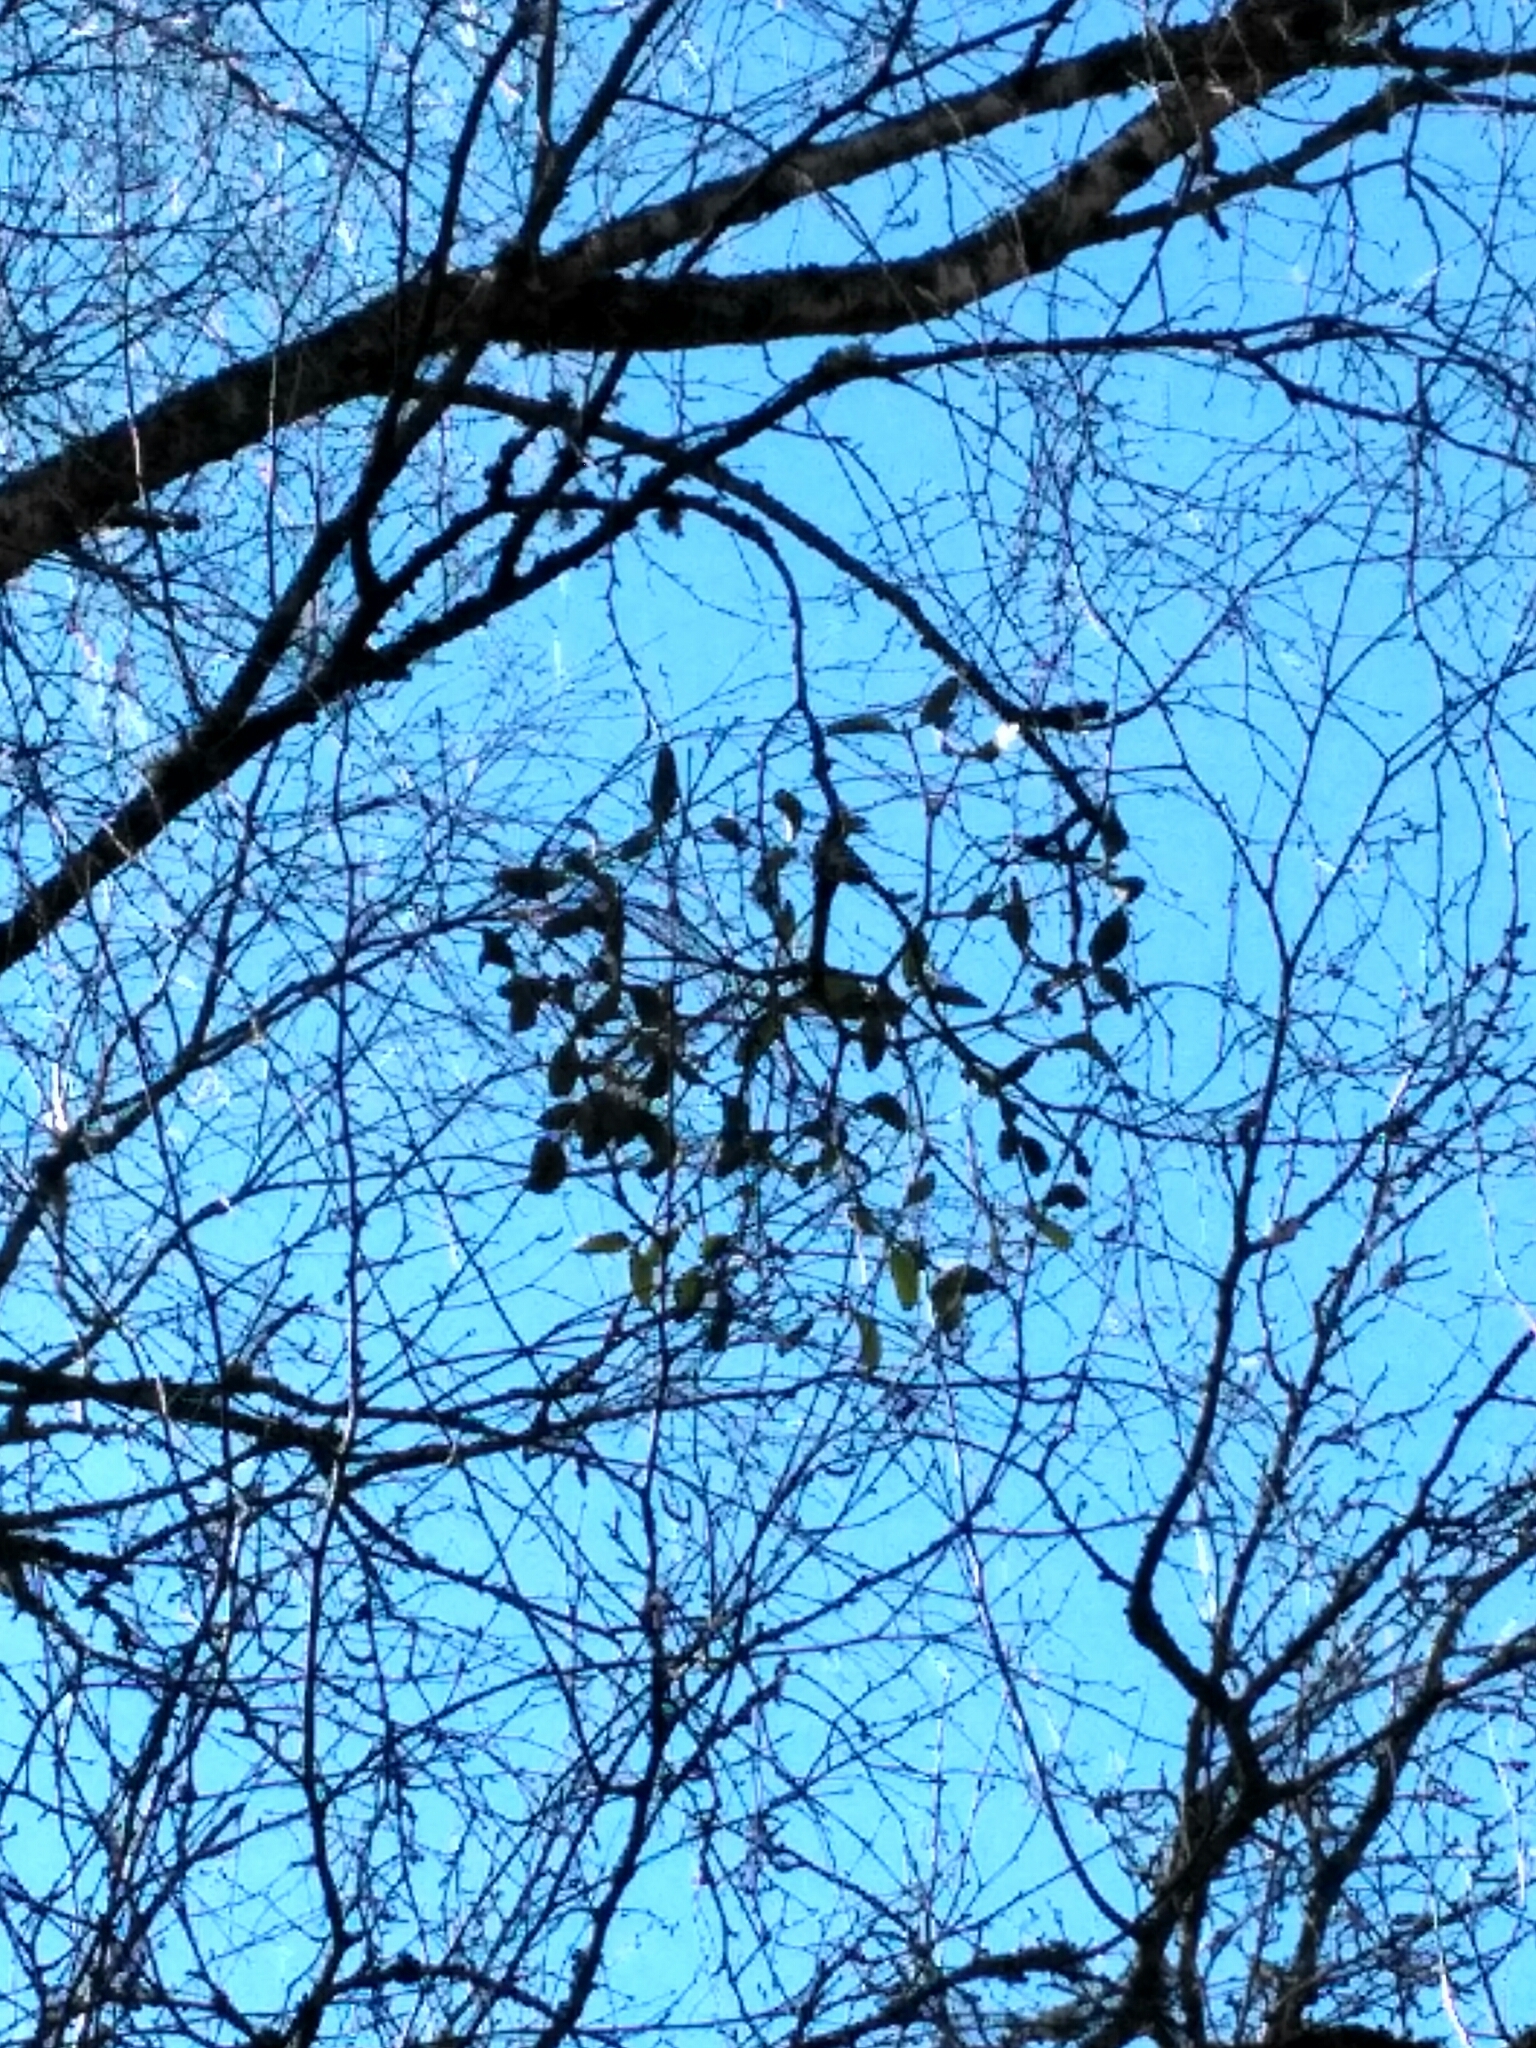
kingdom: Plantae
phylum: Tracheophyta
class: Magnoliopsida
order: Santalales
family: Viscaceae
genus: Viscum
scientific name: Viscum album
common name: Mistletoe
